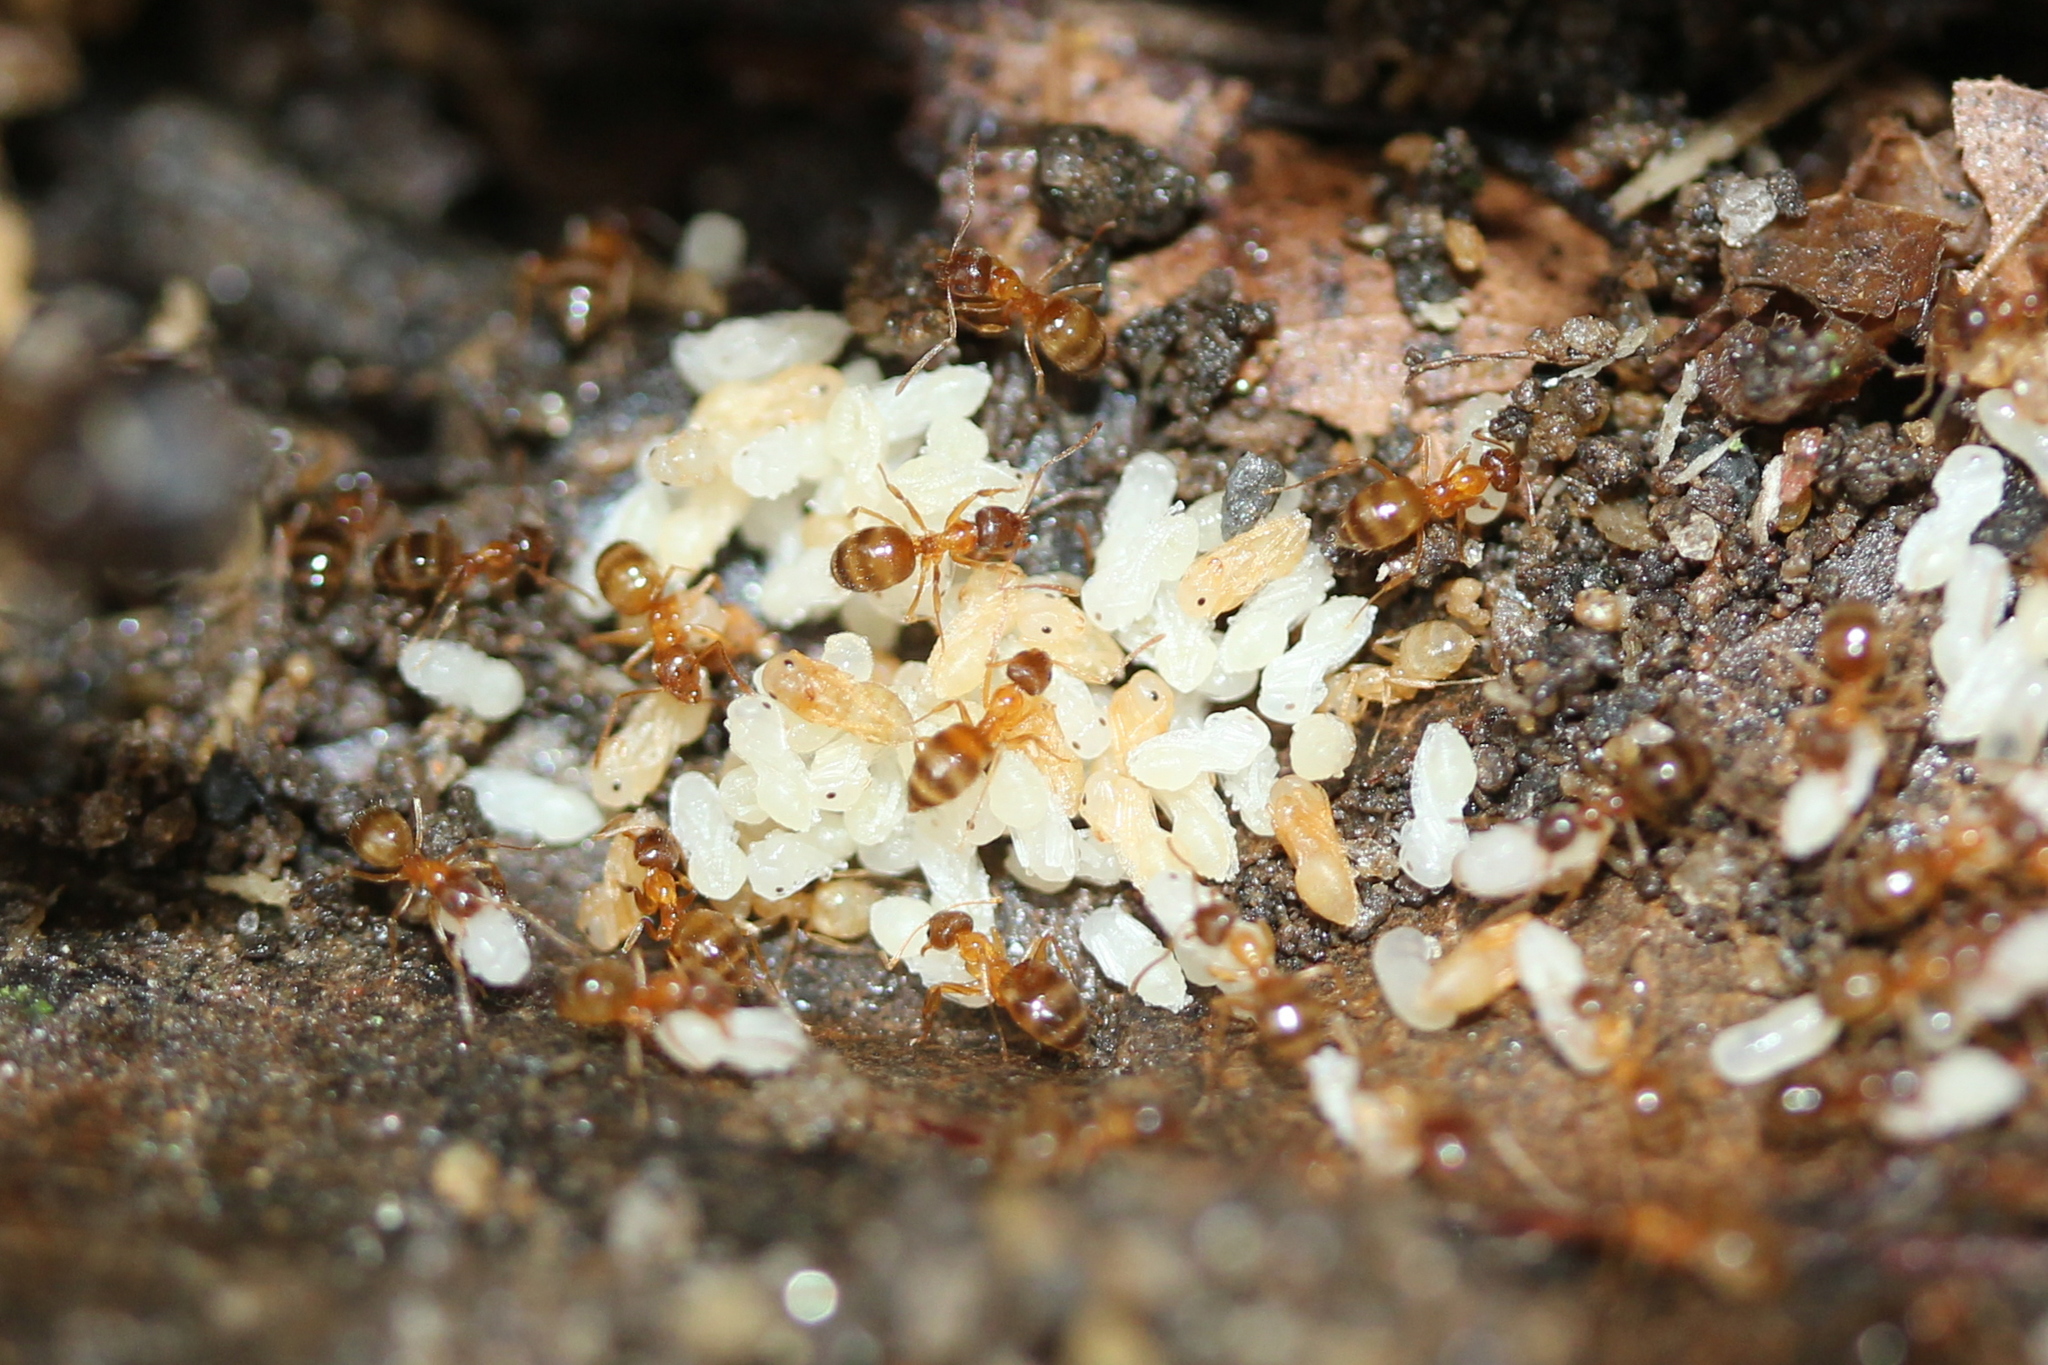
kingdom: Animalia
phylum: Arthropoda
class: Insecta
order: Hymenoptera
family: Formicidae
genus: Paratrechina
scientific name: Paratrechina flavipes
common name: Eastern asian formicine ant
